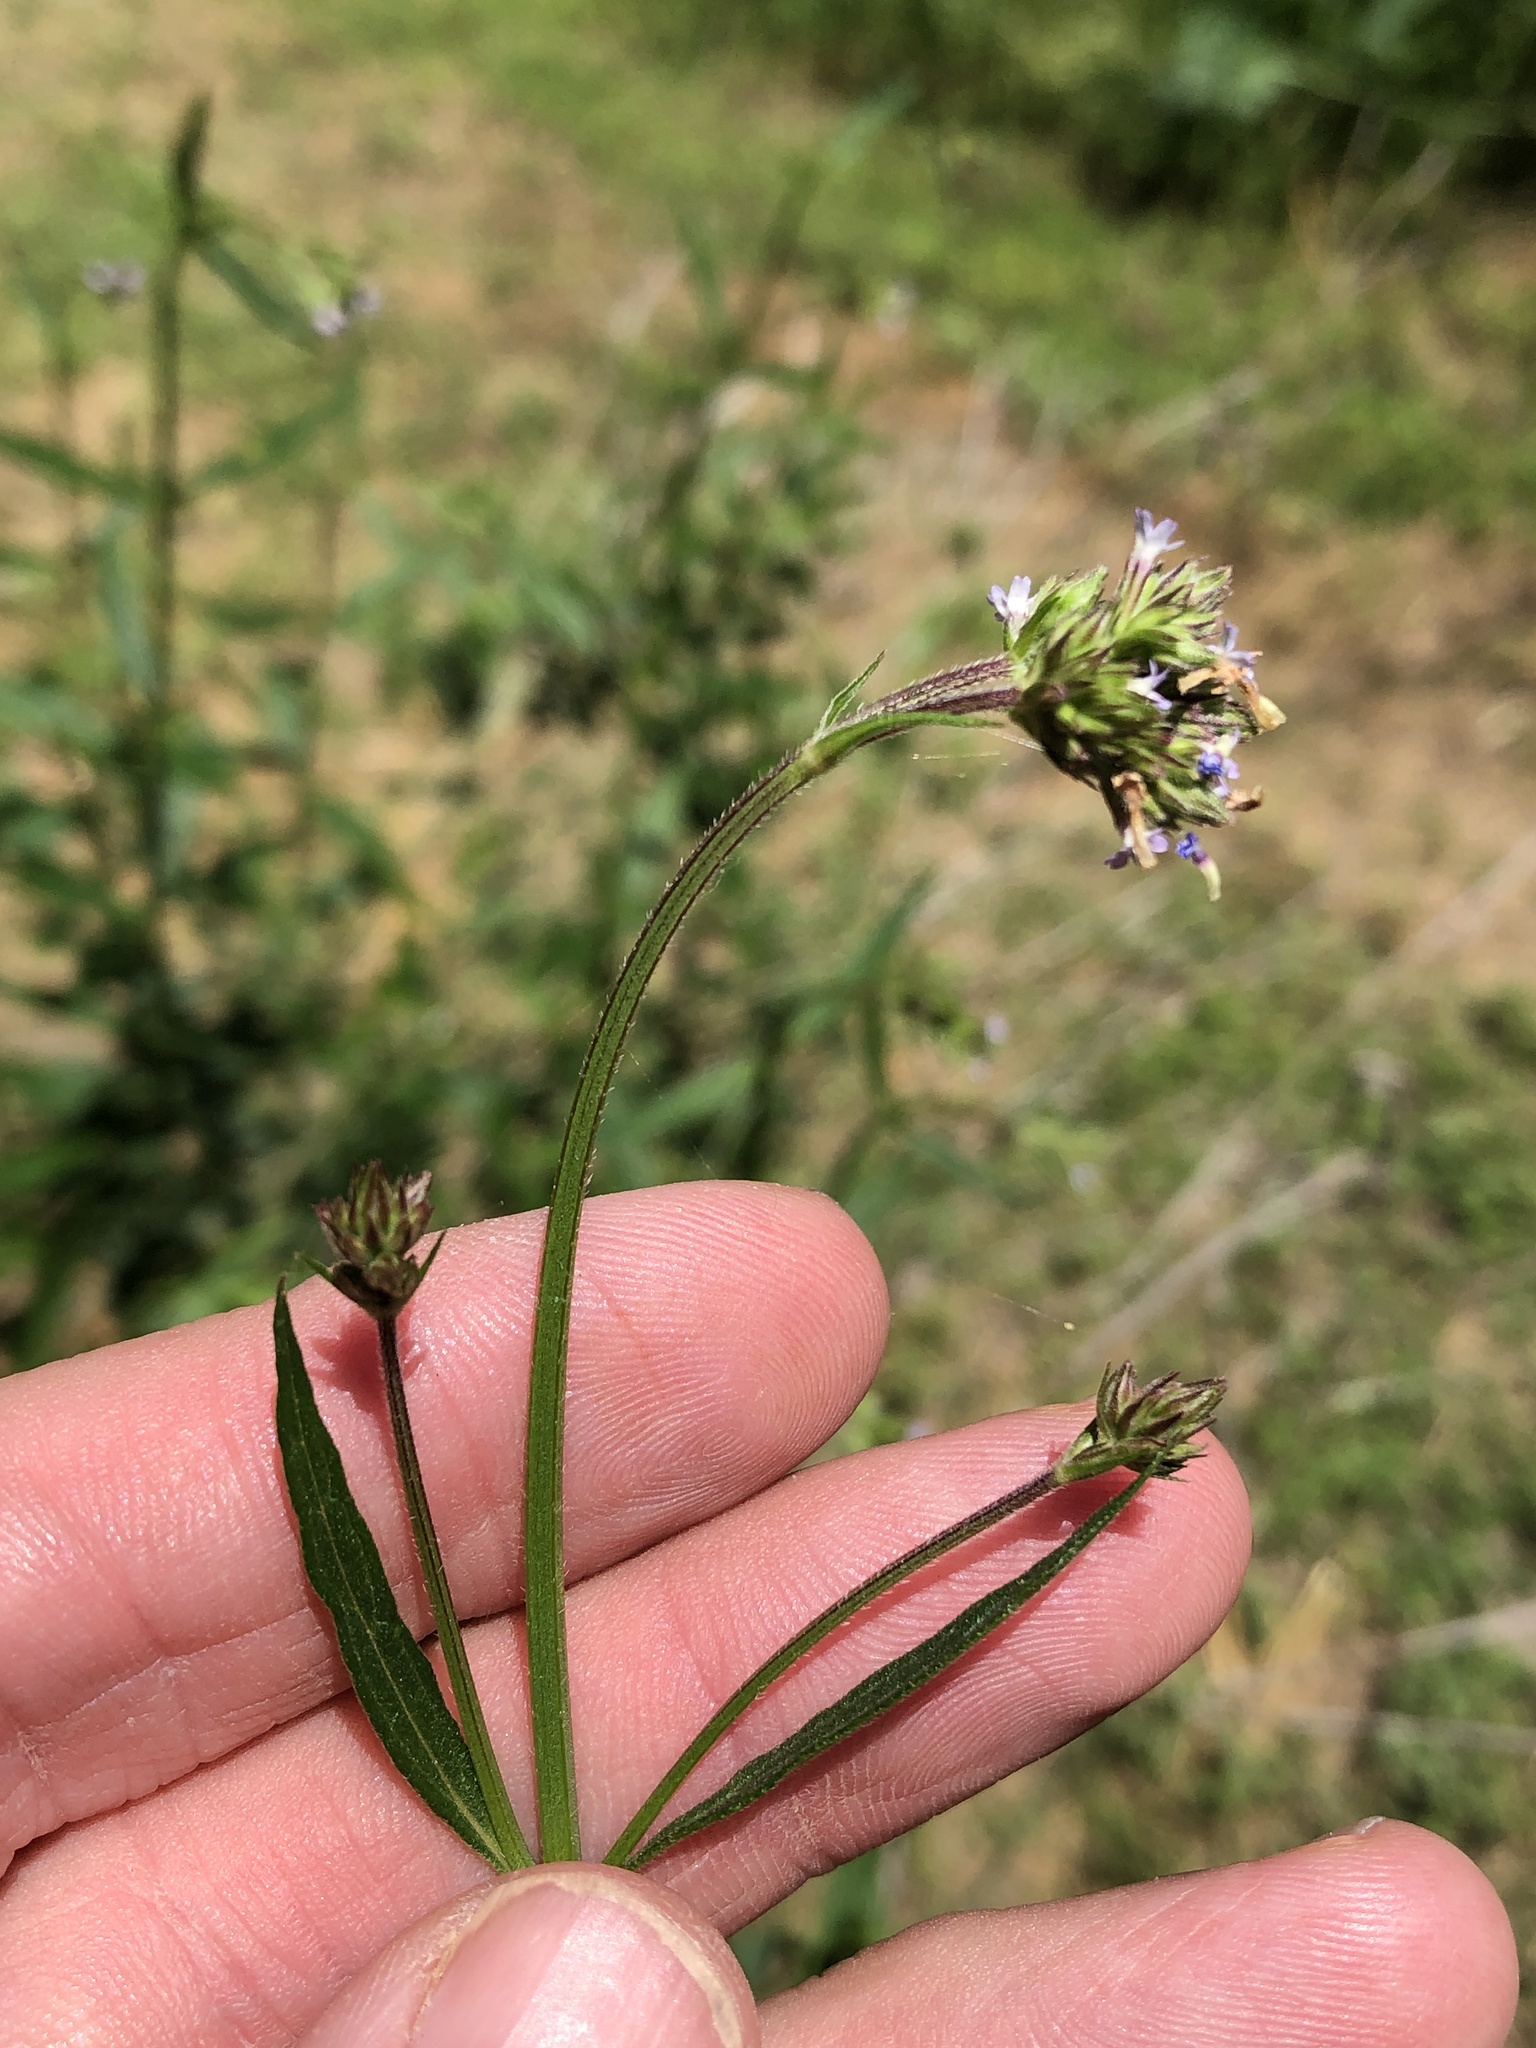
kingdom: Plantae
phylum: Tracheophyta
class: Magnoliopsida
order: Lamiales
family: Verbenaceae
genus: Verbena
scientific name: Verbena brasiliensis
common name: Brazilian vervain
